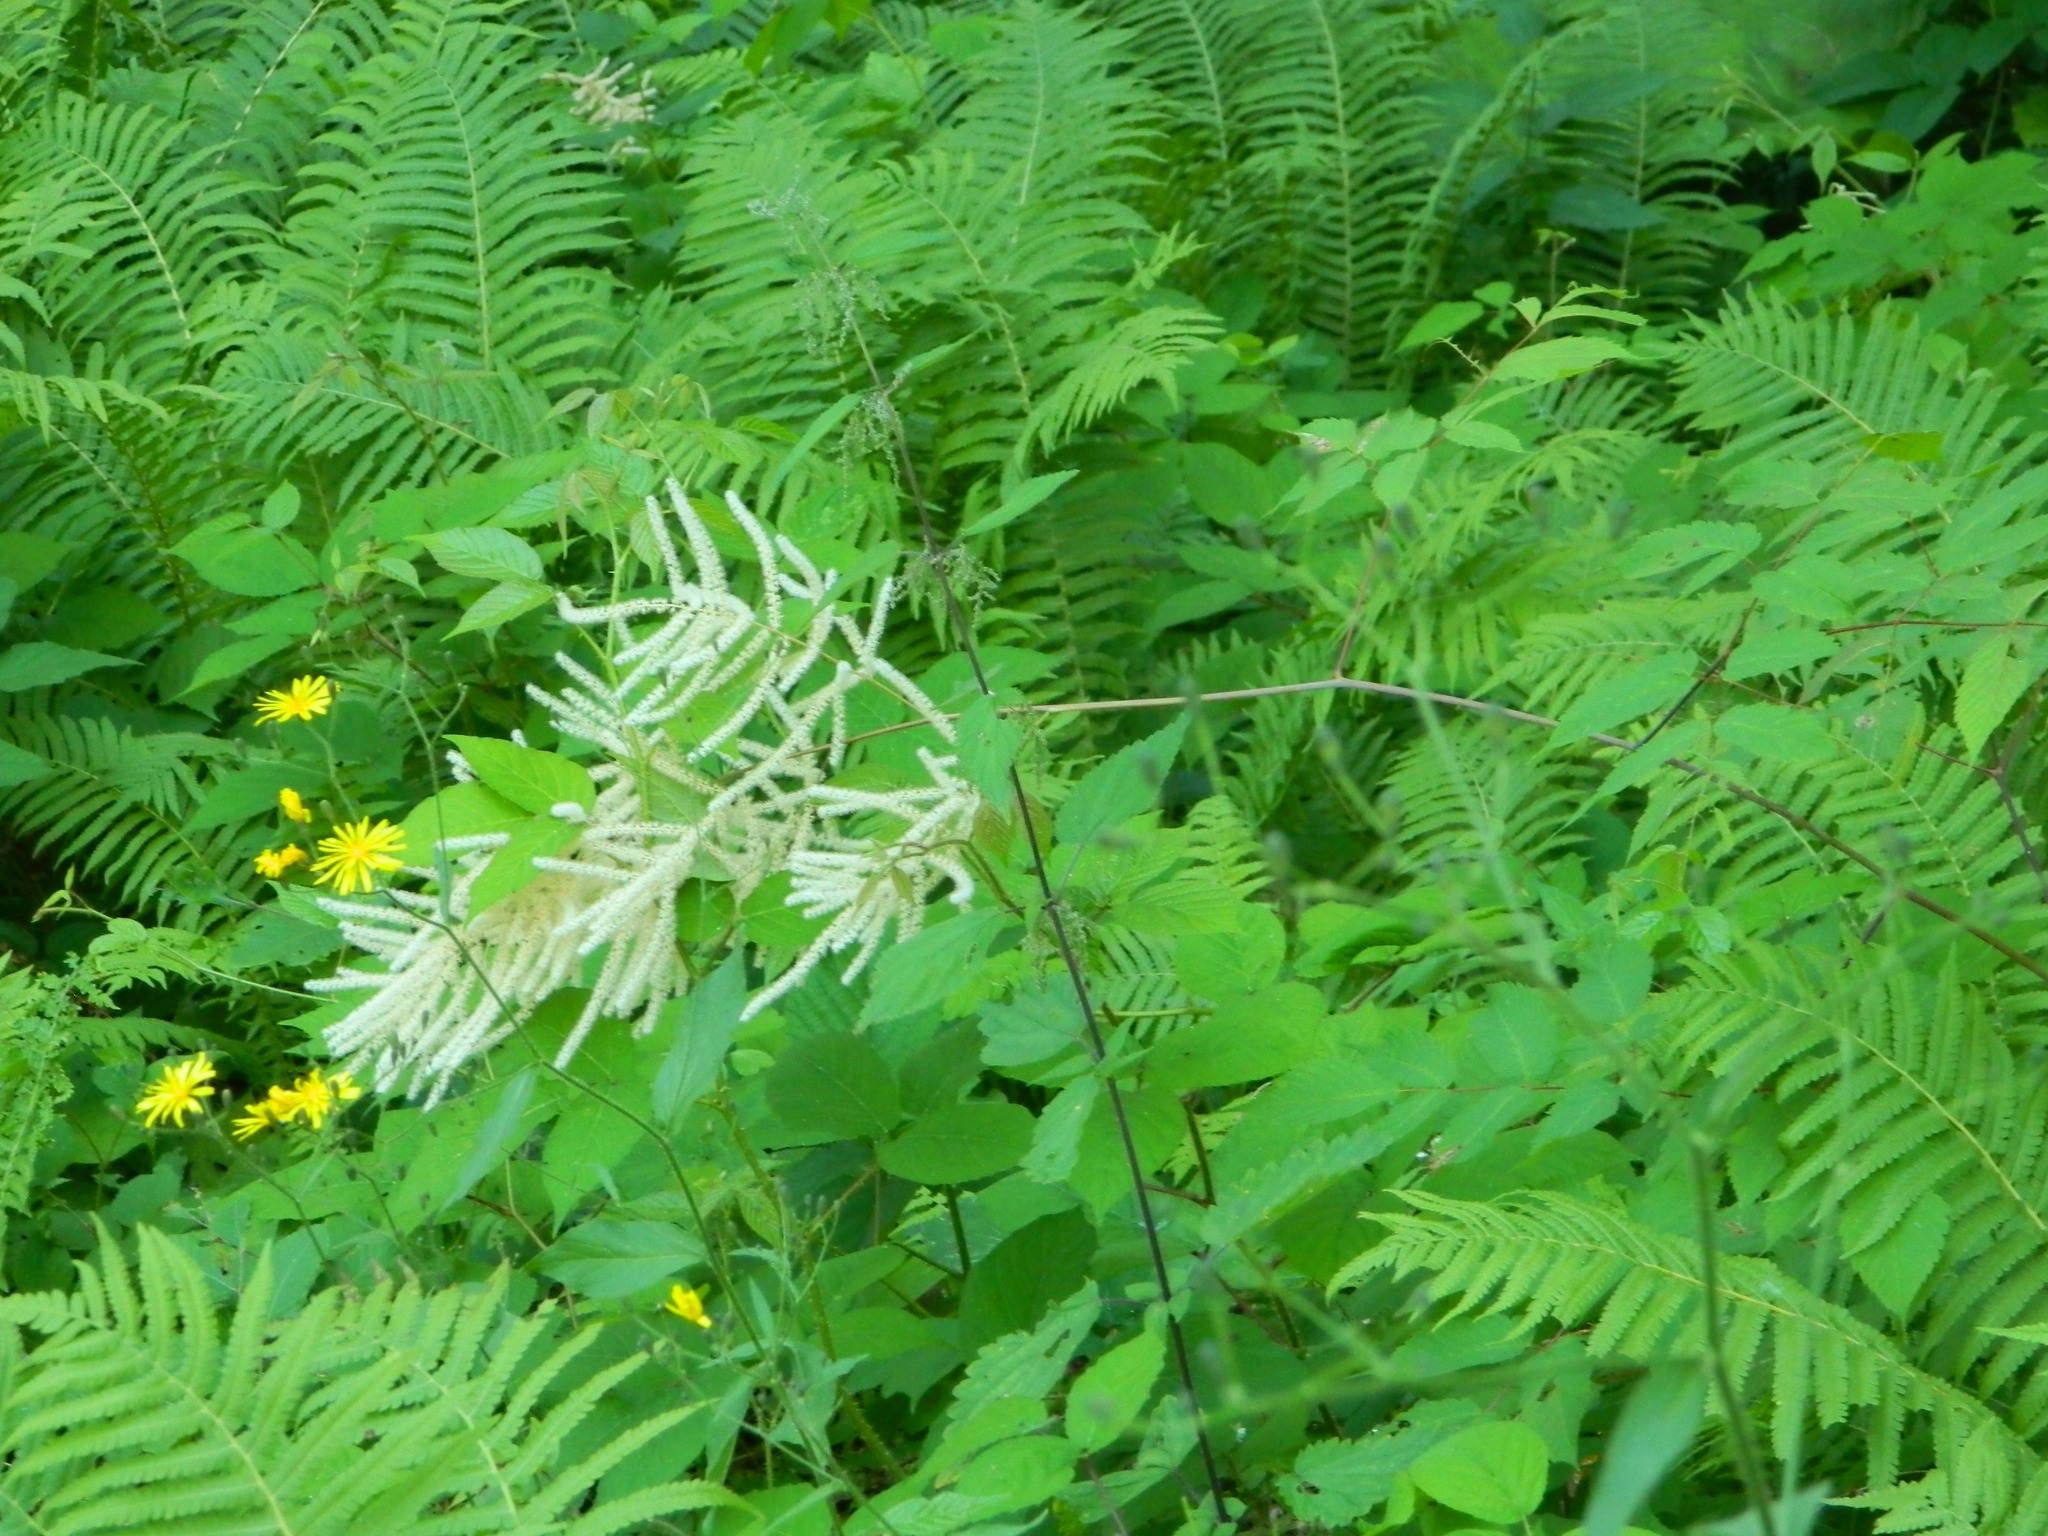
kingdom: Plantae
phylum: Tracheophyta
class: Magnoliopsida
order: Rosales
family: Rosaceae
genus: Aruncus
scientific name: Aruncus dioicus
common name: Buck's-beard
